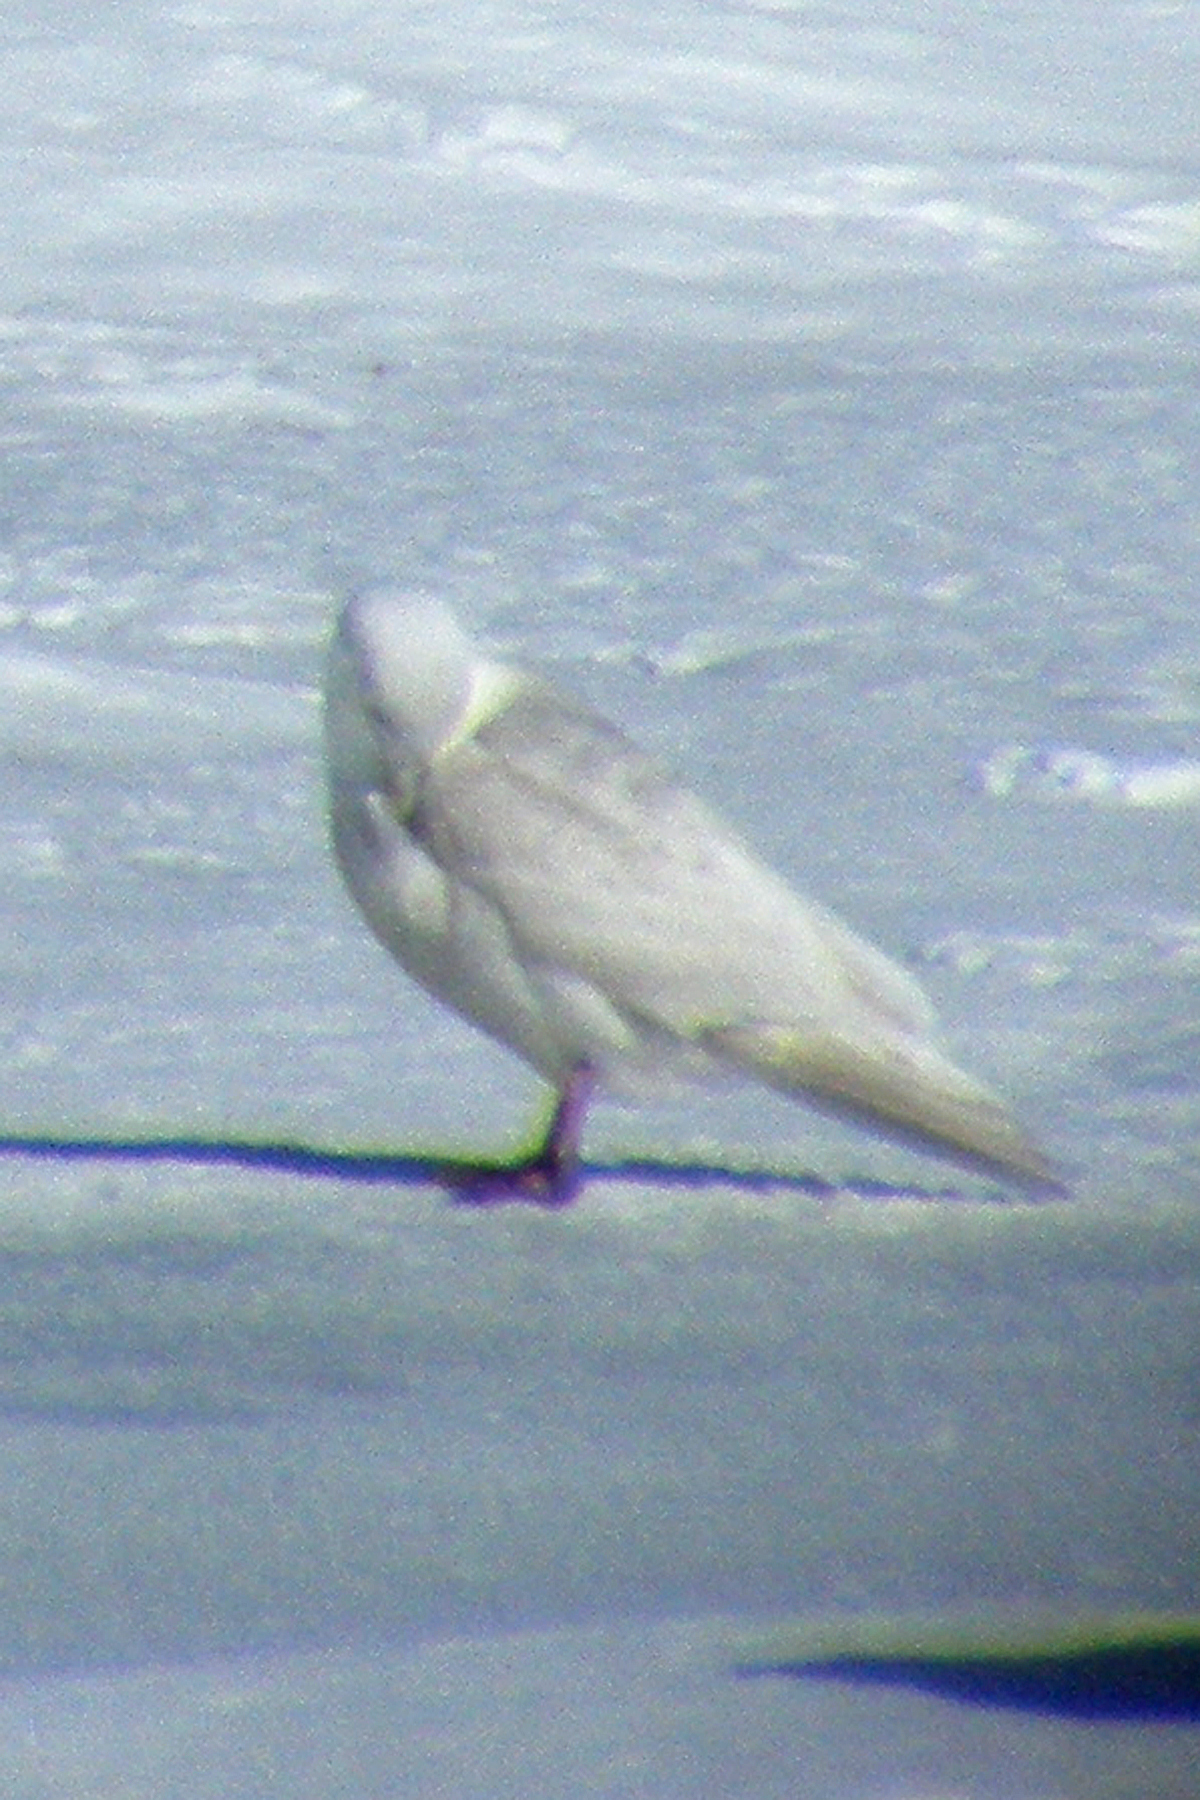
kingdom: Animalia
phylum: Chordata
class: Aves
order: Charadriiformes
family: Laridae
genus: Larus
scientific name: Larus glaucoides
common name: Iceland gull
